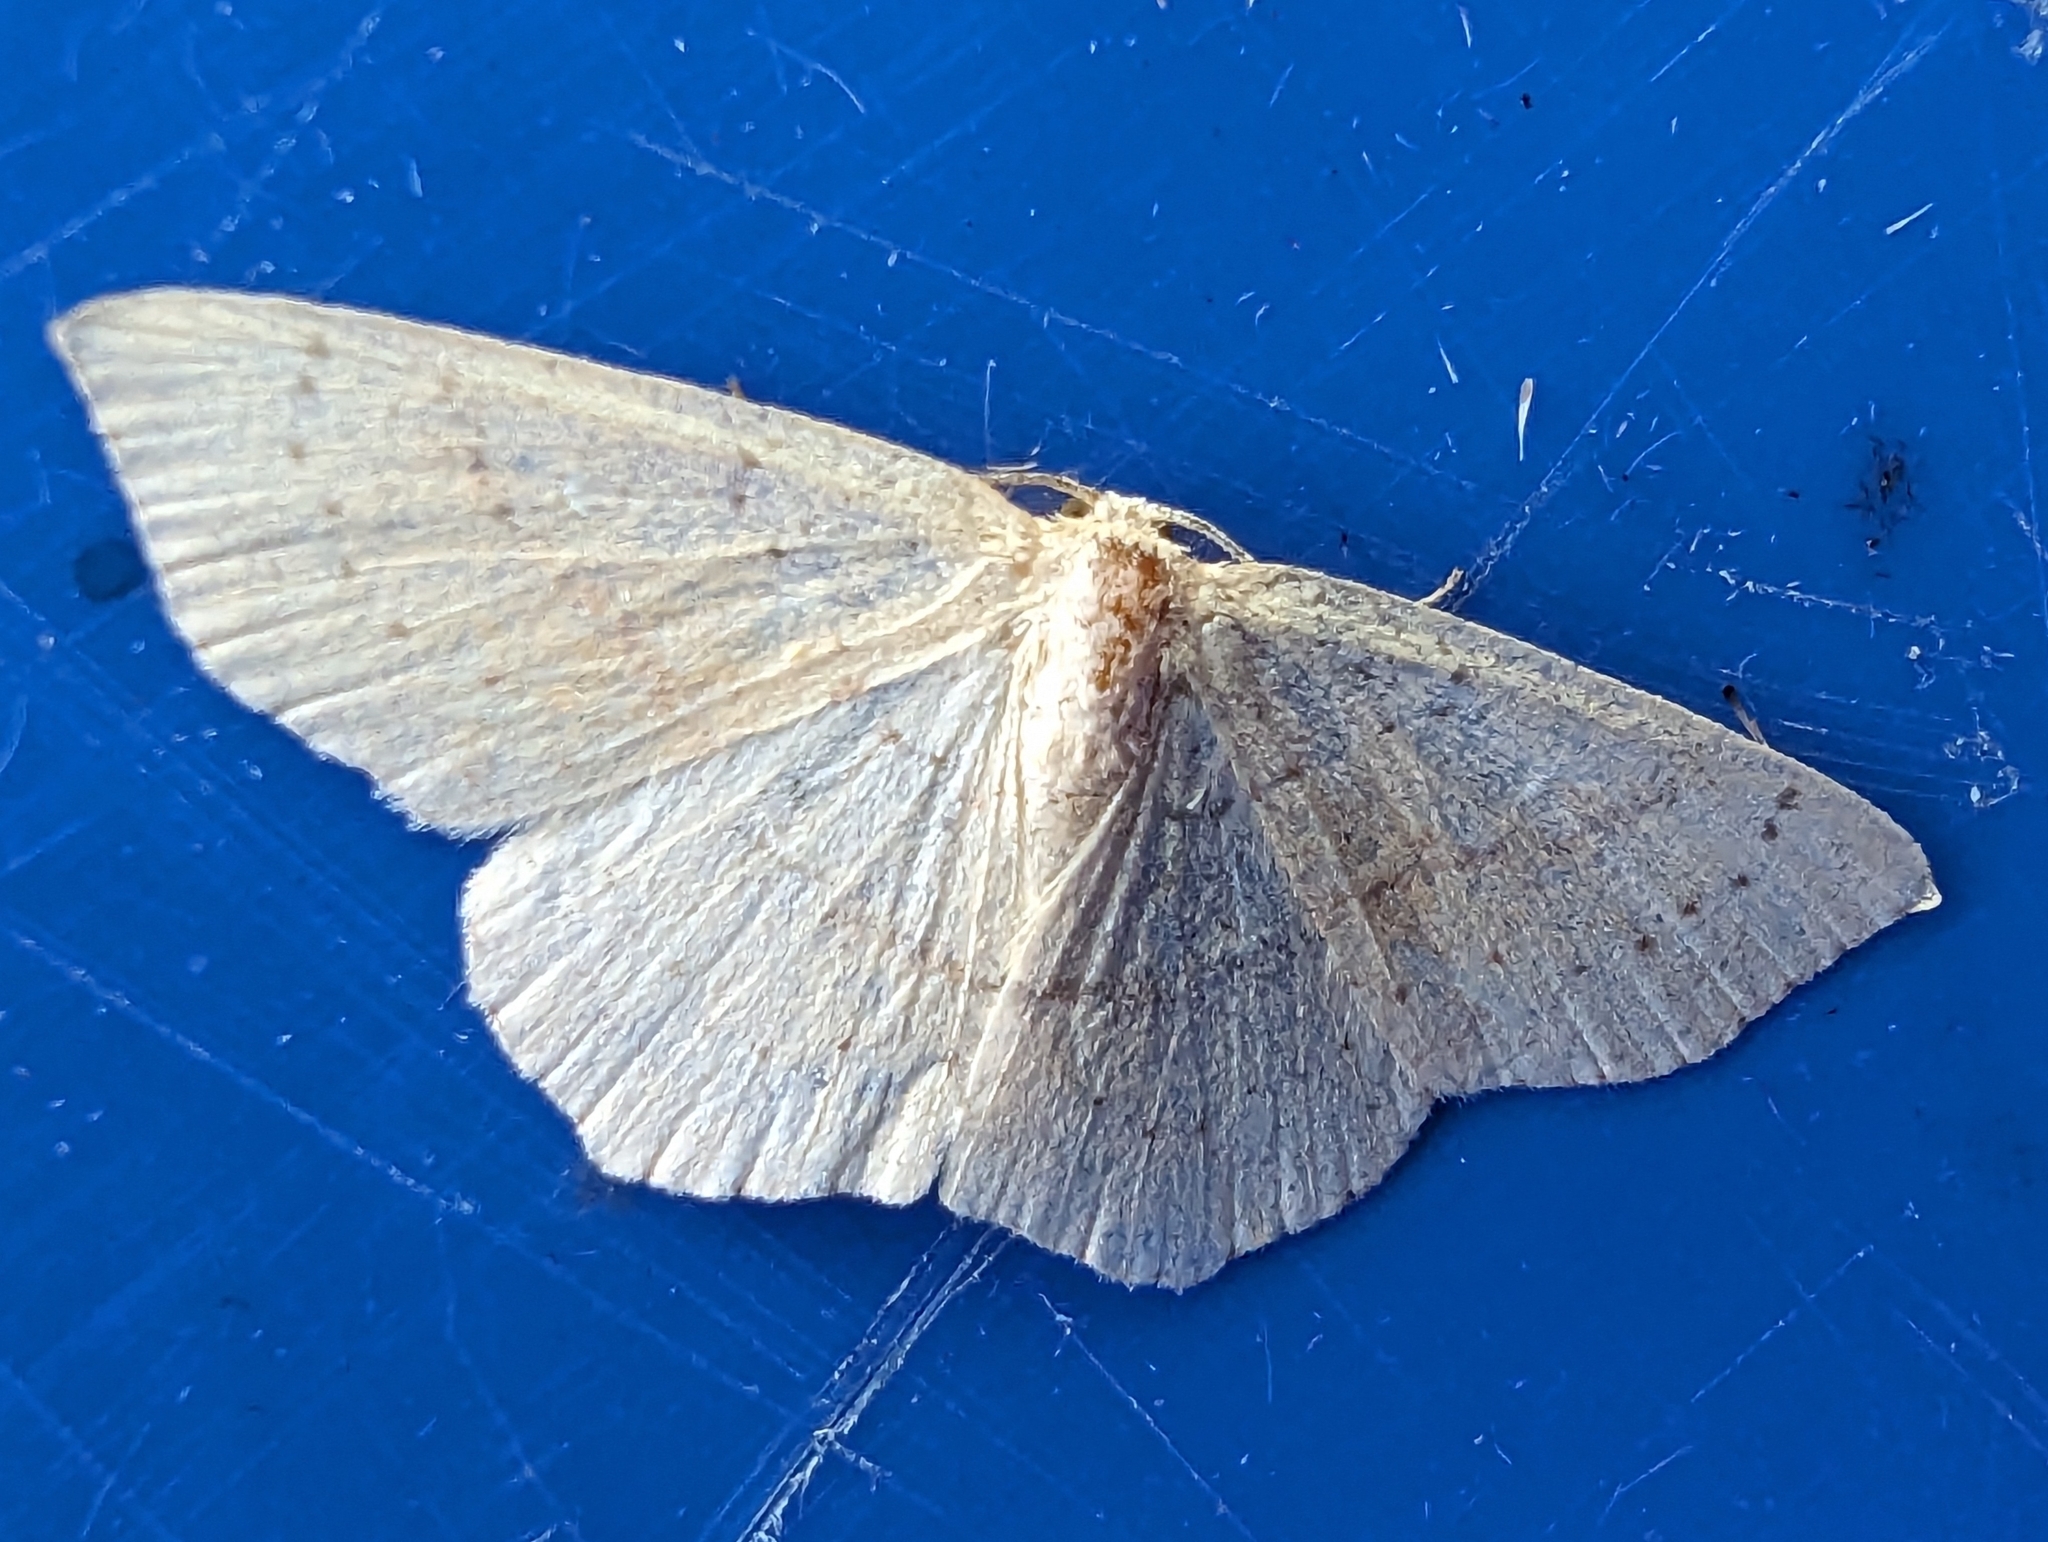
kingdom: Animalia
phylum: Arthropoda
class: Insecta
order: Lepidoptera
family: Geometridae
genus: Cyclophora
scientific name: Cyclophora linearia
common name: Clay triple-lines
